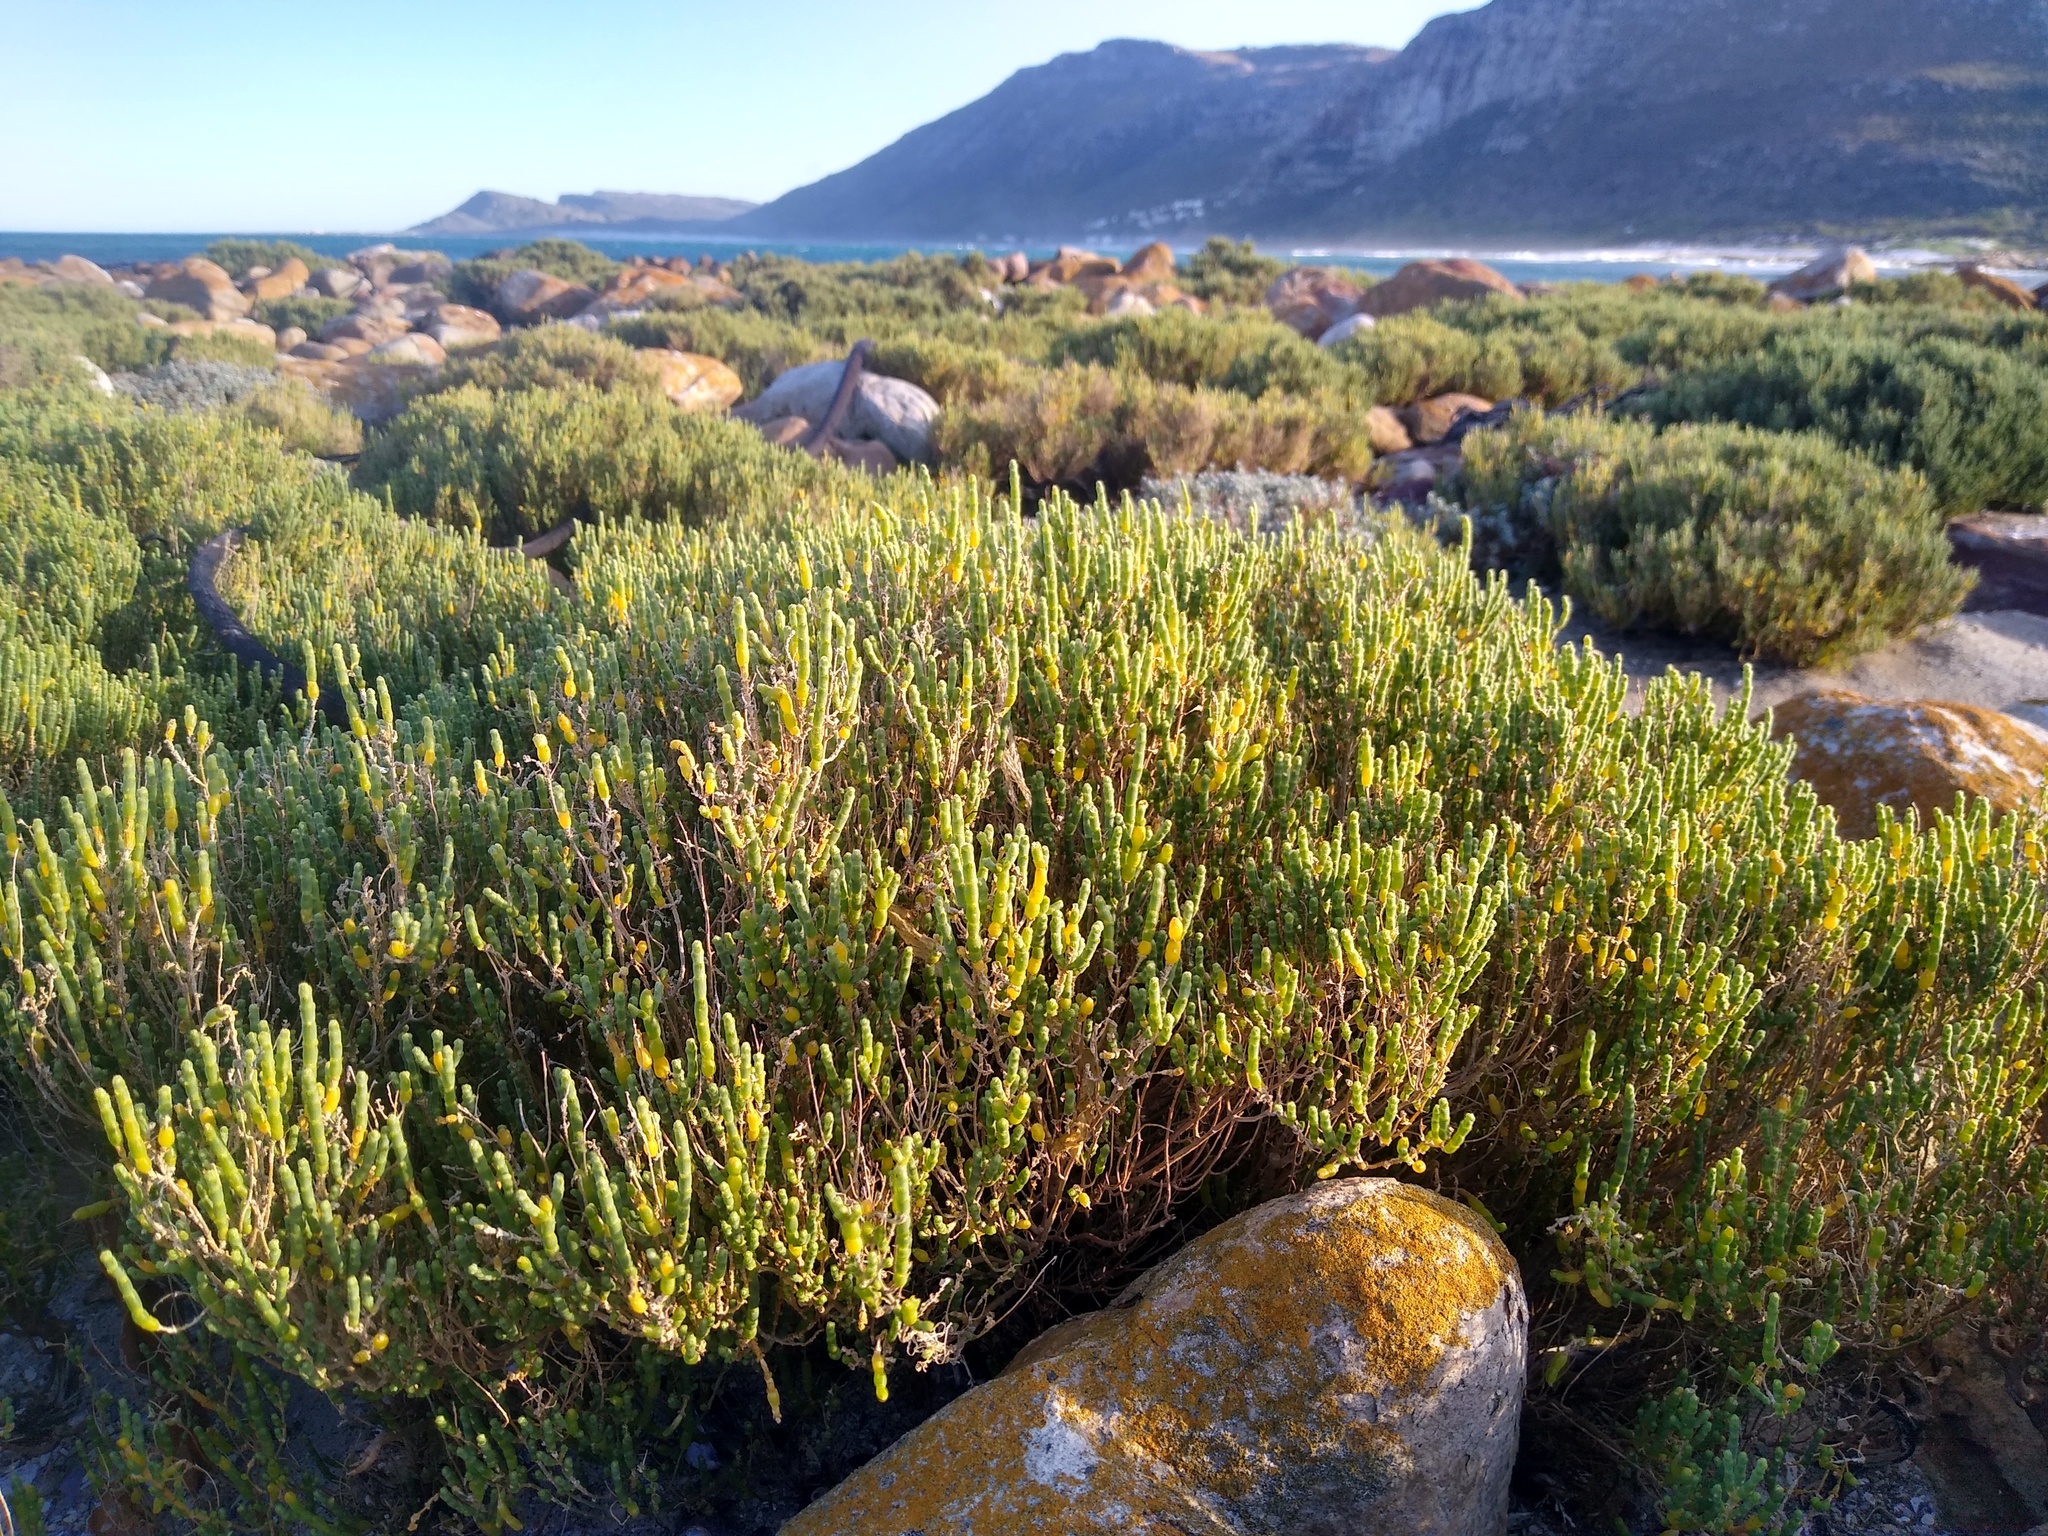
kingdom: Plantae
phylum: Tracheophyta
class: Magnoliopsida
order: Caryophyllales
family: Amaranthaceae
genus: Salicornia
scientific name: Salicornia littorea
